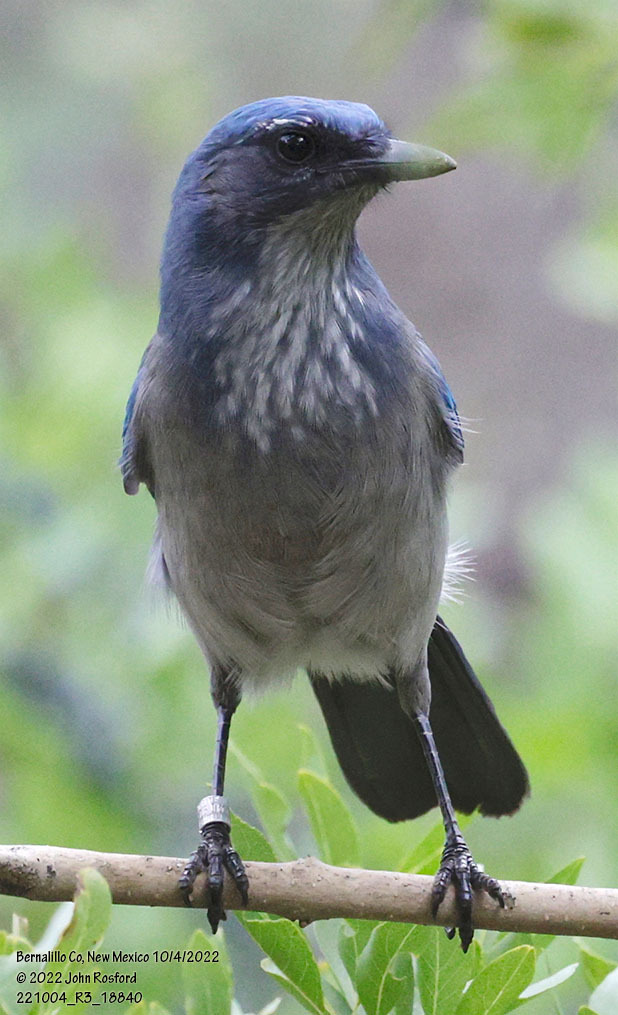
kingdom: Animalia
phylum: Chordata
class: Aves
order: Passeriformes
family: Corvidae
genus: Aphelocoma
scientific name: Aphelocoma woodhouseii
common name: Woodhouse's scrub-jay
